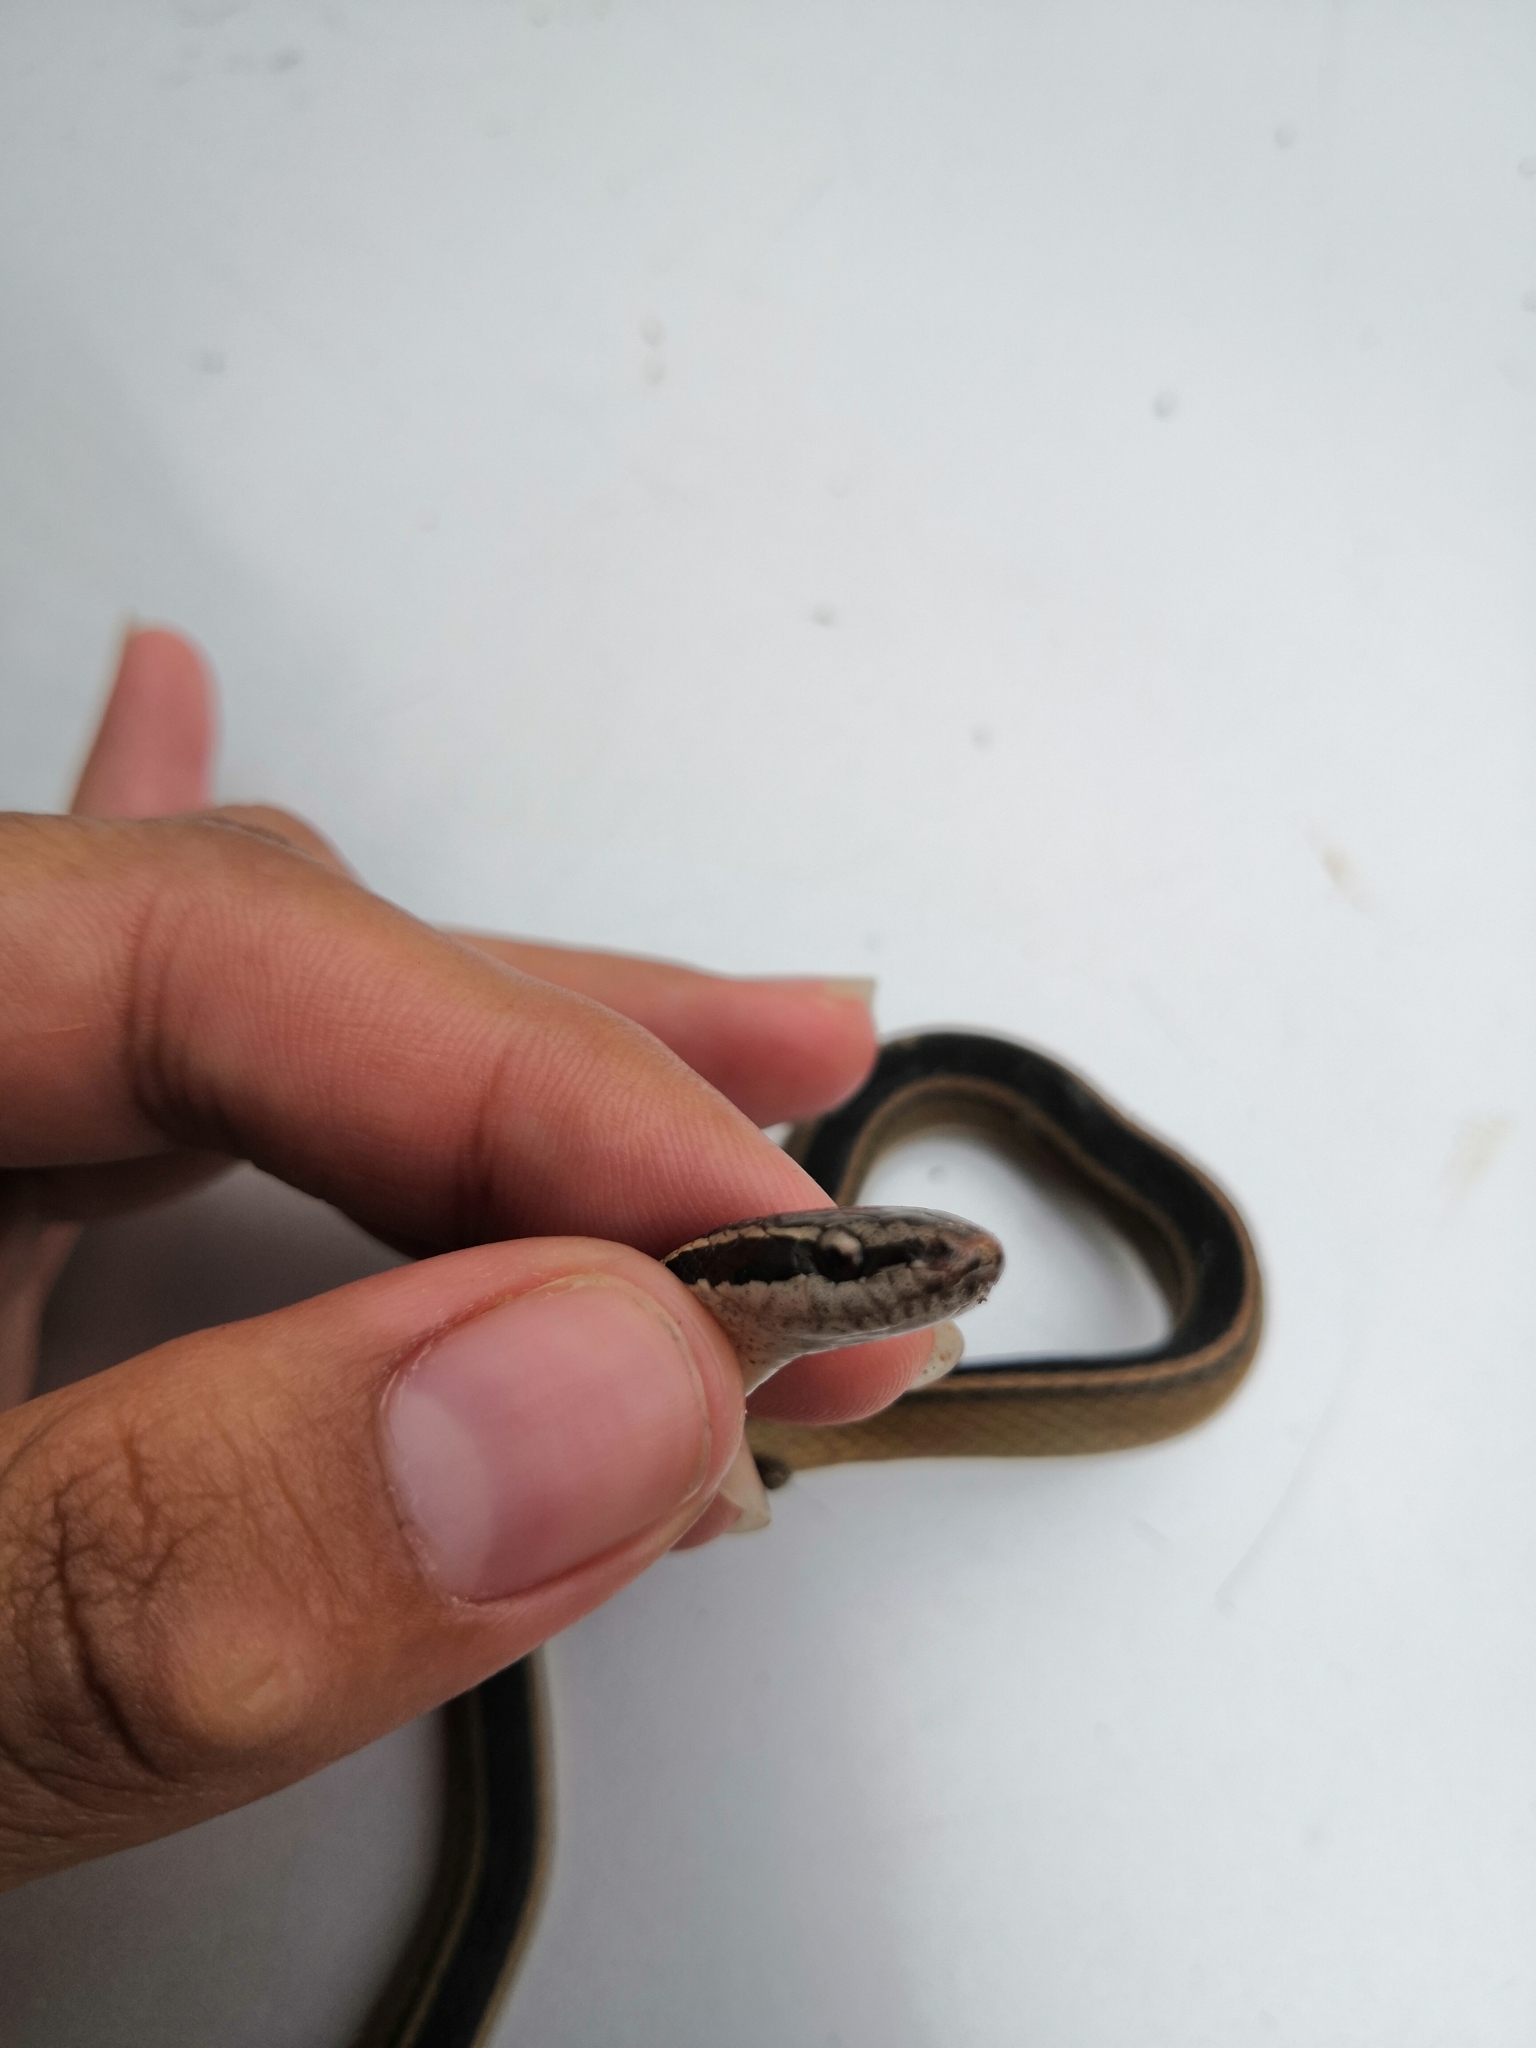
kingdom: Animalia
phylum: Chordata
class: Squamata
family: Colubridae
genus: Coniophanes
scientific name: Coniophanes schmidti
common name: Faded black-striped snake
